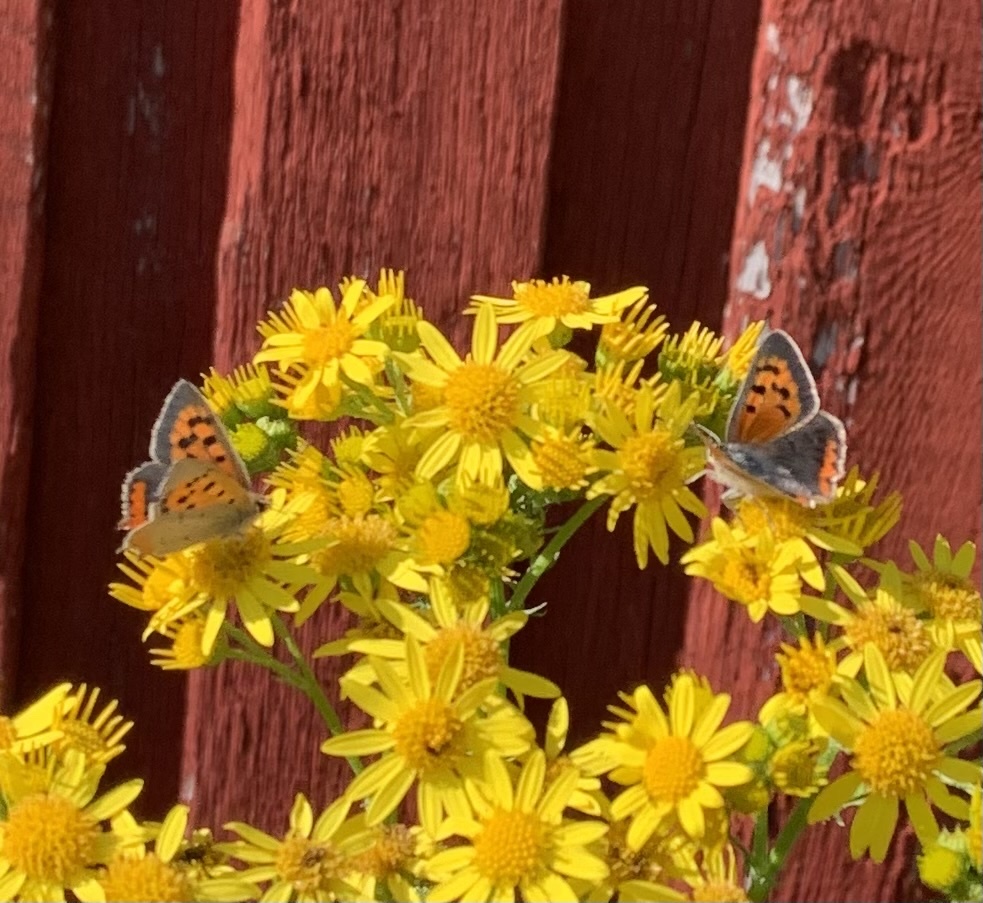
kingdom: Animalia
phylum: Arthropoda
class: Insecta
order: Lepidoptera
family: Lycaenidae
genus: Lycaena
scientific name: Lycaena phlaeas
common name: Small copper
